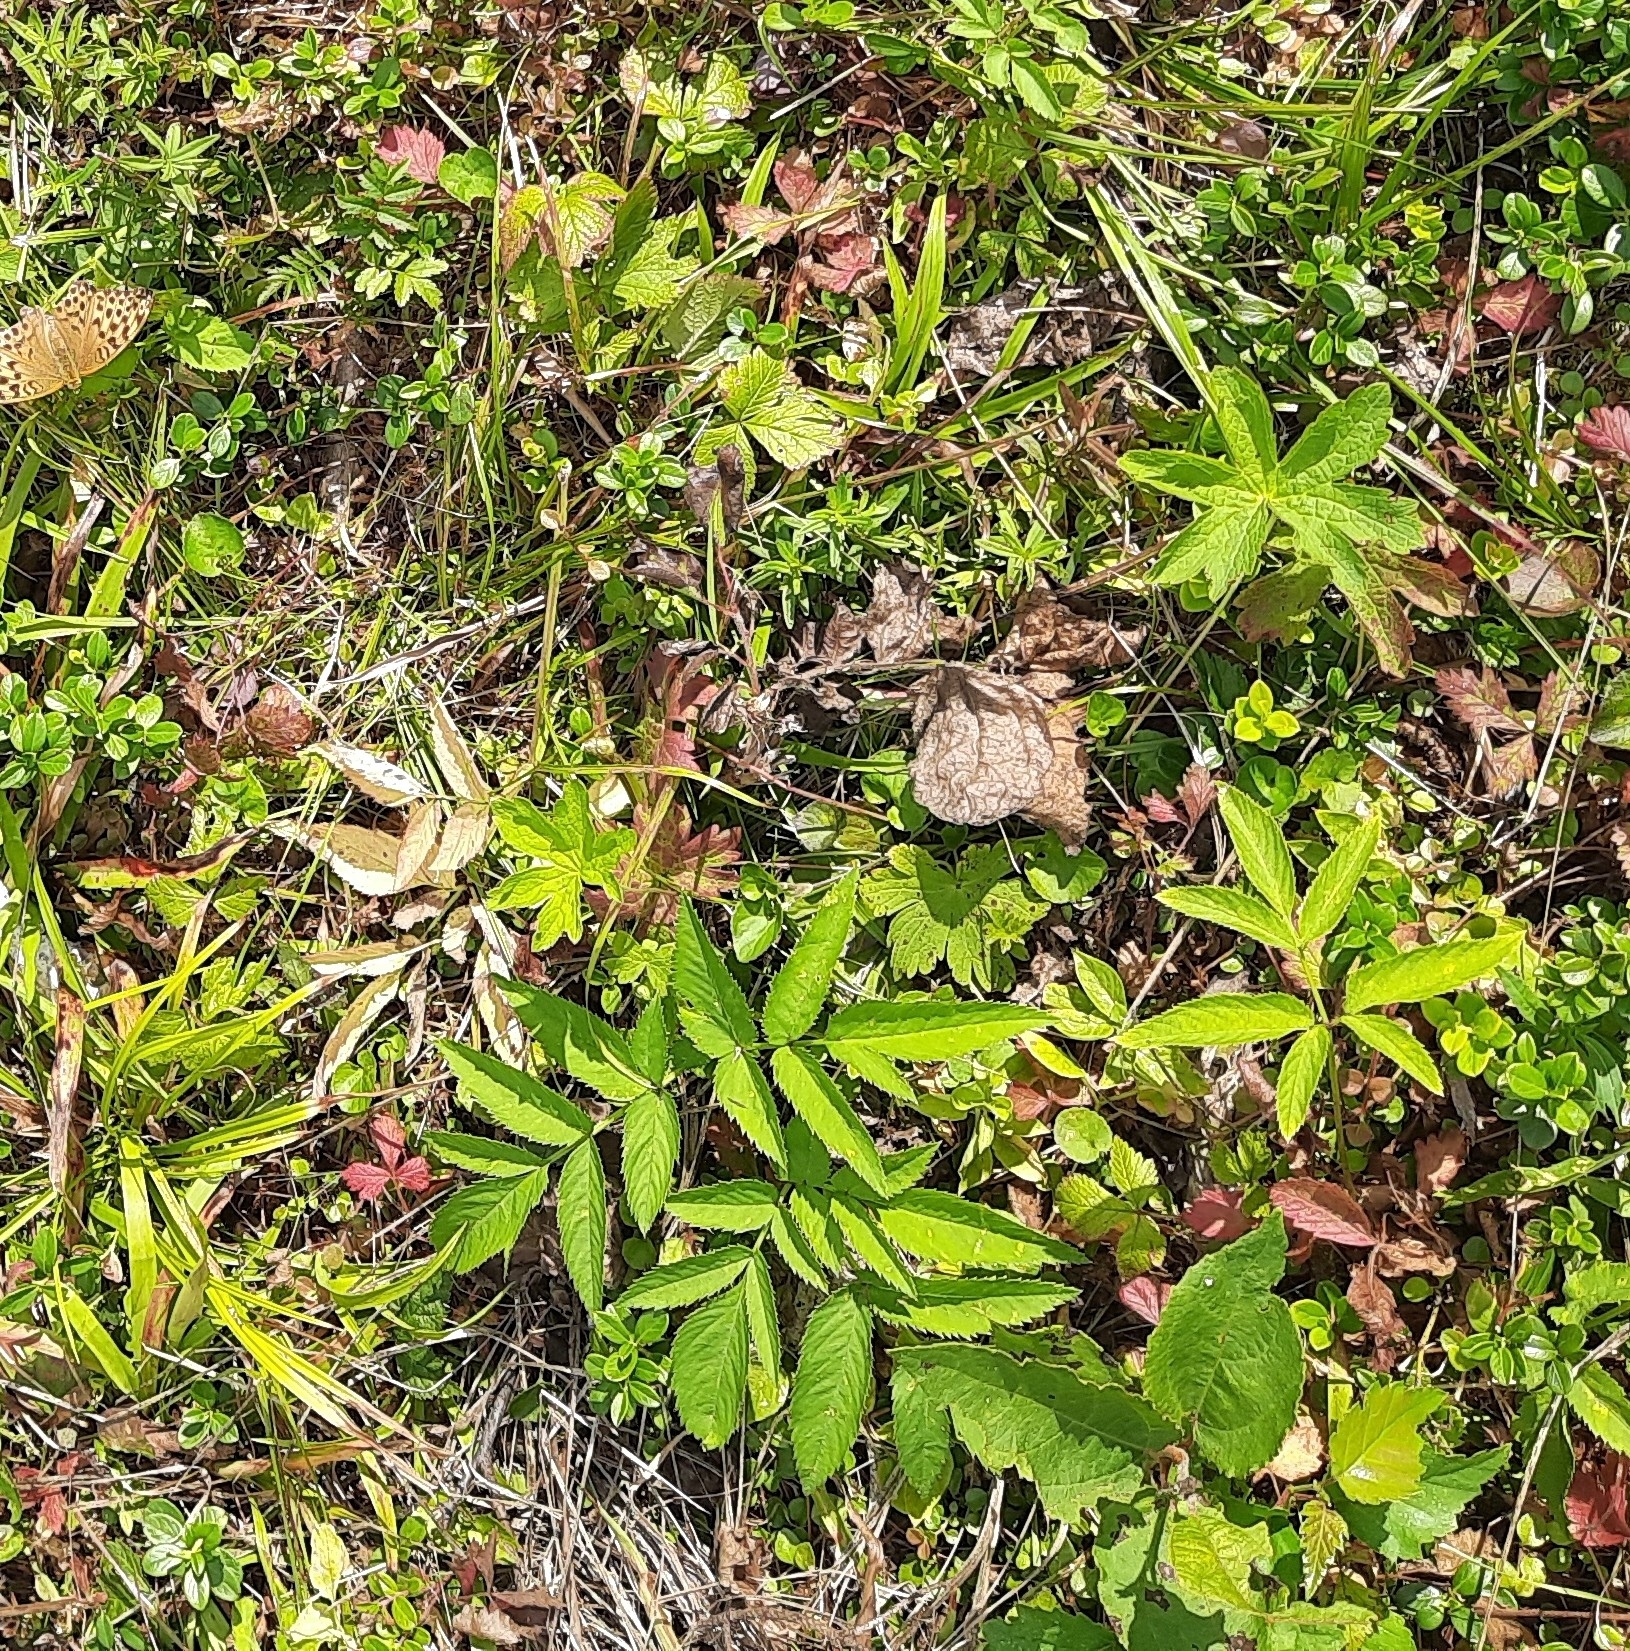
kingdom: Plantae
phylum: Tracheophyta
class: Magnoliopsida
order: Apiales
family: Apiaceae
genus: Angelica
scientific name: Angelica sylvestris
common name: Wild angelica
